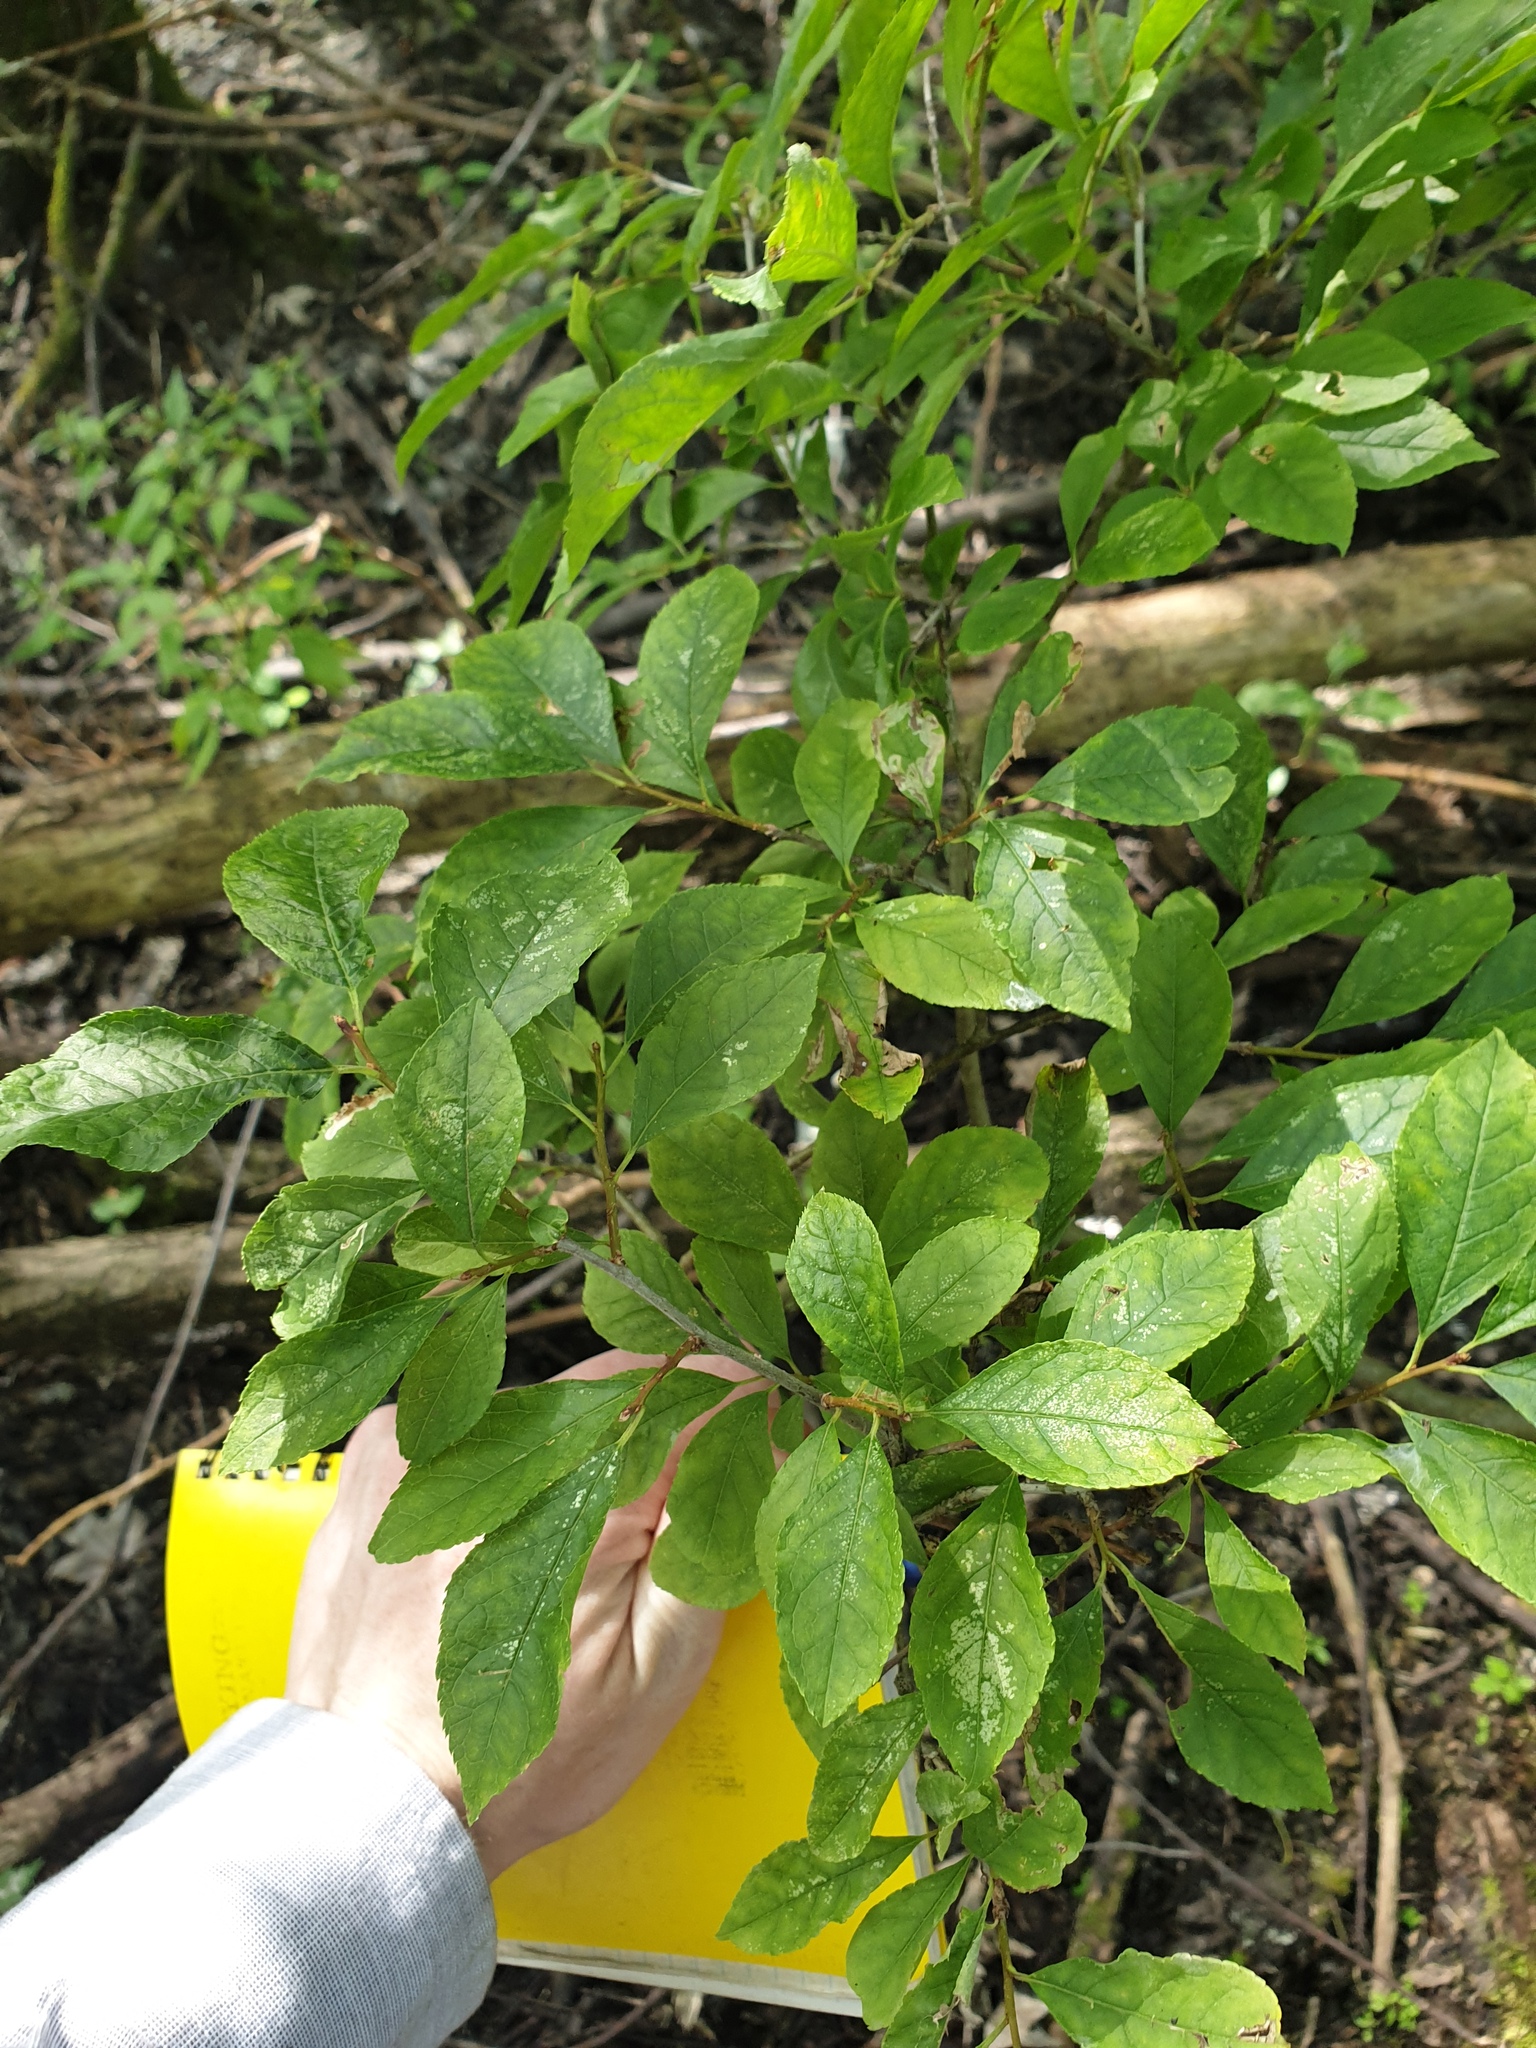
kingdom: Plantae
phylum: Tracheophyta
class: Magnoliopsida
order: Aquifoliales
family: Aquifoliaceae
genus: Ilex
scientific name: Ilex verticillata
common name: Virginia winterberry
